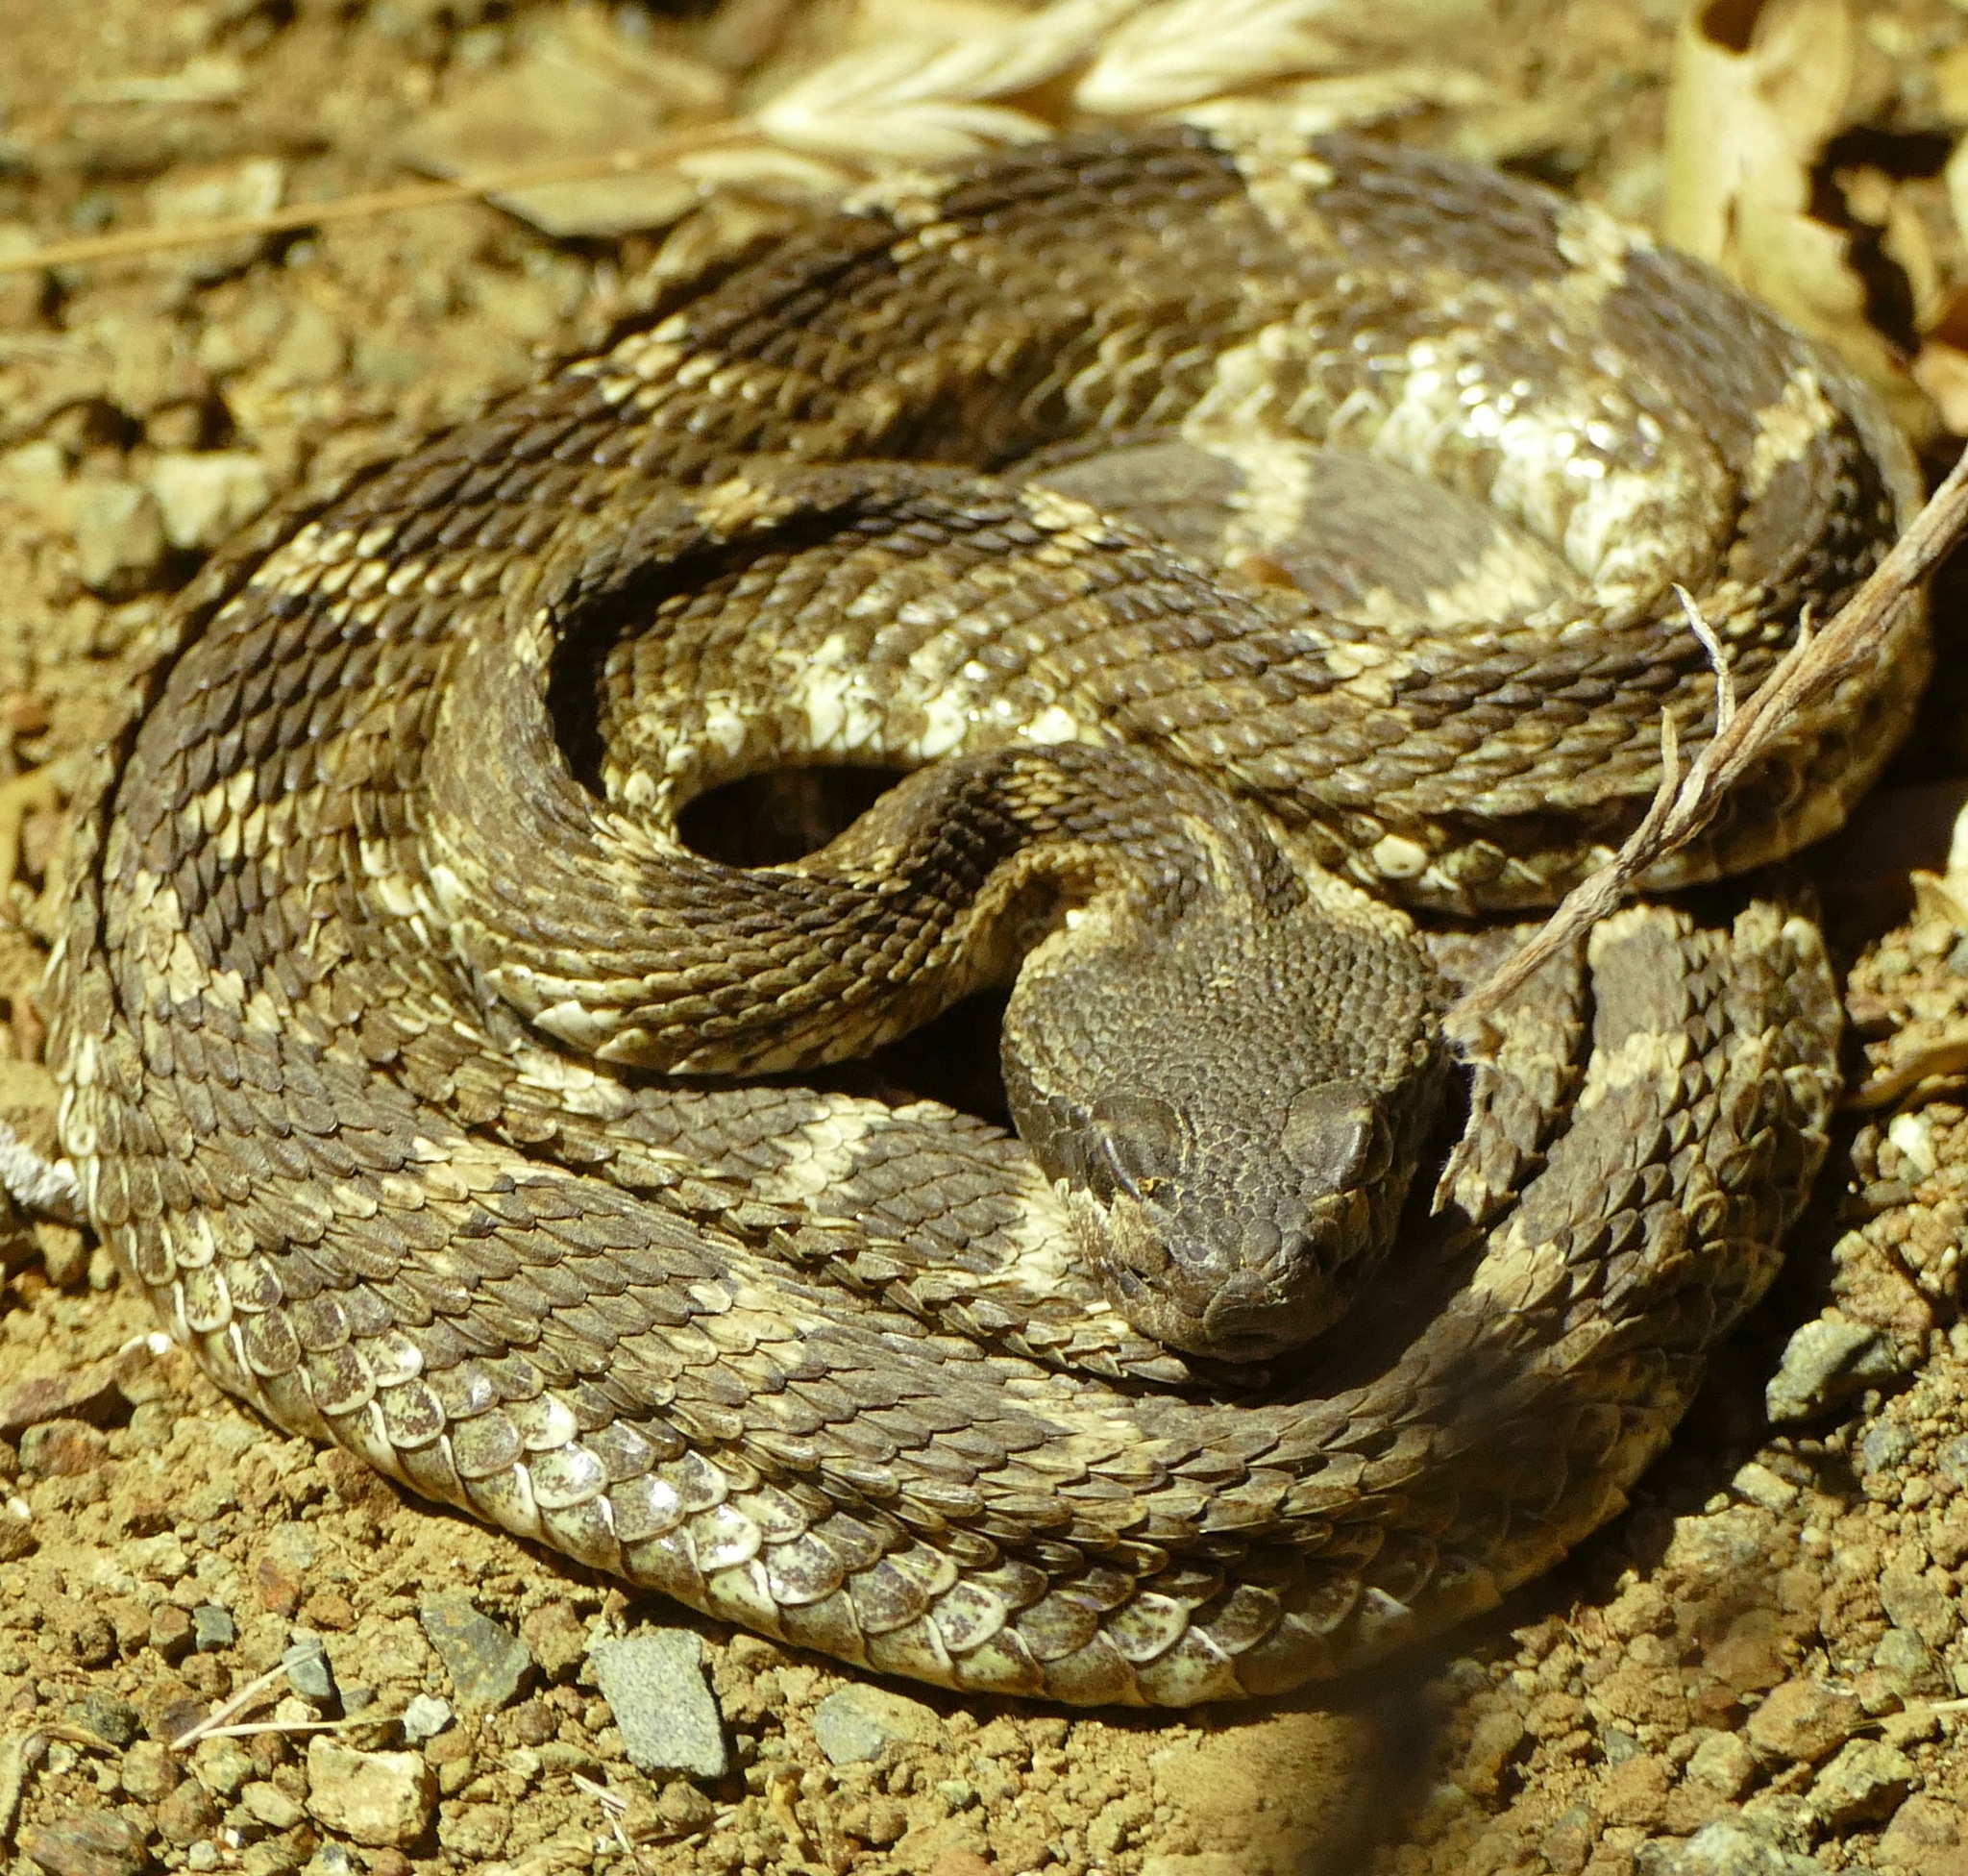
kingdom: Animalia
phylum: Chordata
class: Squamata
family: Viperidae
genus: Crotalus
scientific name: Crotalus oreganus
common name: Abyssus
